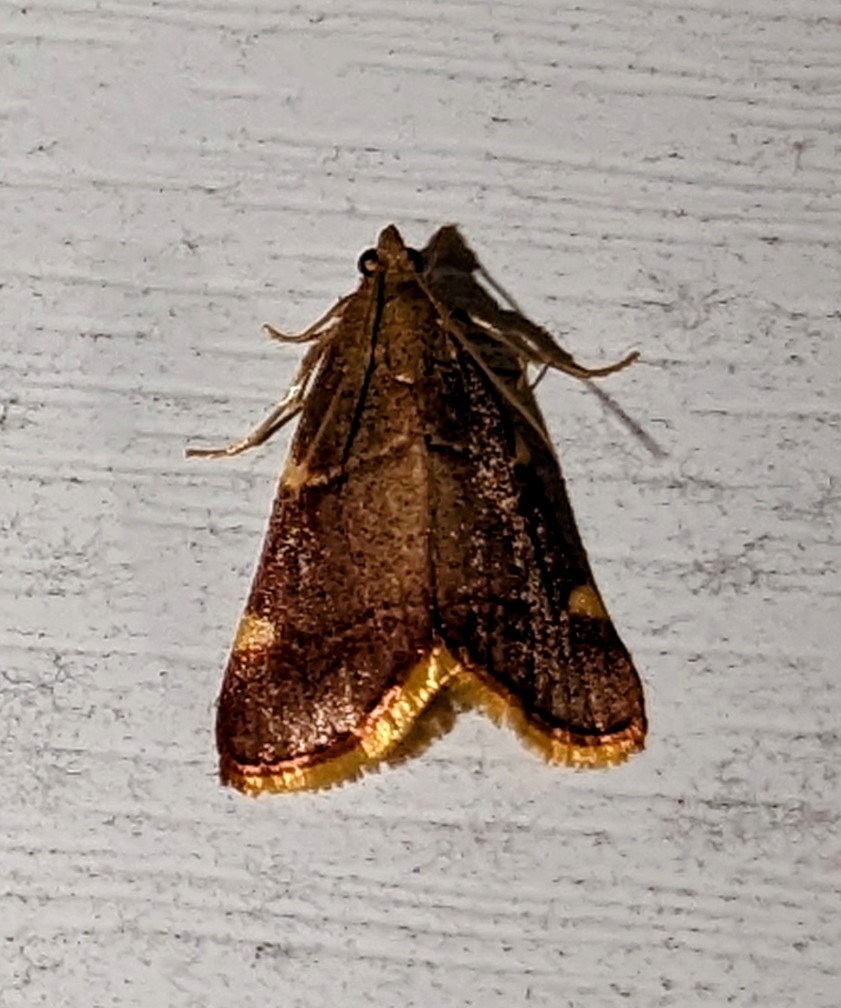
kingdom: Animalia
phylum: Arthropoda
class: Insecta
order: Lepidoptera
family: Pyralidae
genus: Hypsopygia
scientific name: Hypsopygia olinalis
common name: Yellow-fringed dolichomia moth
